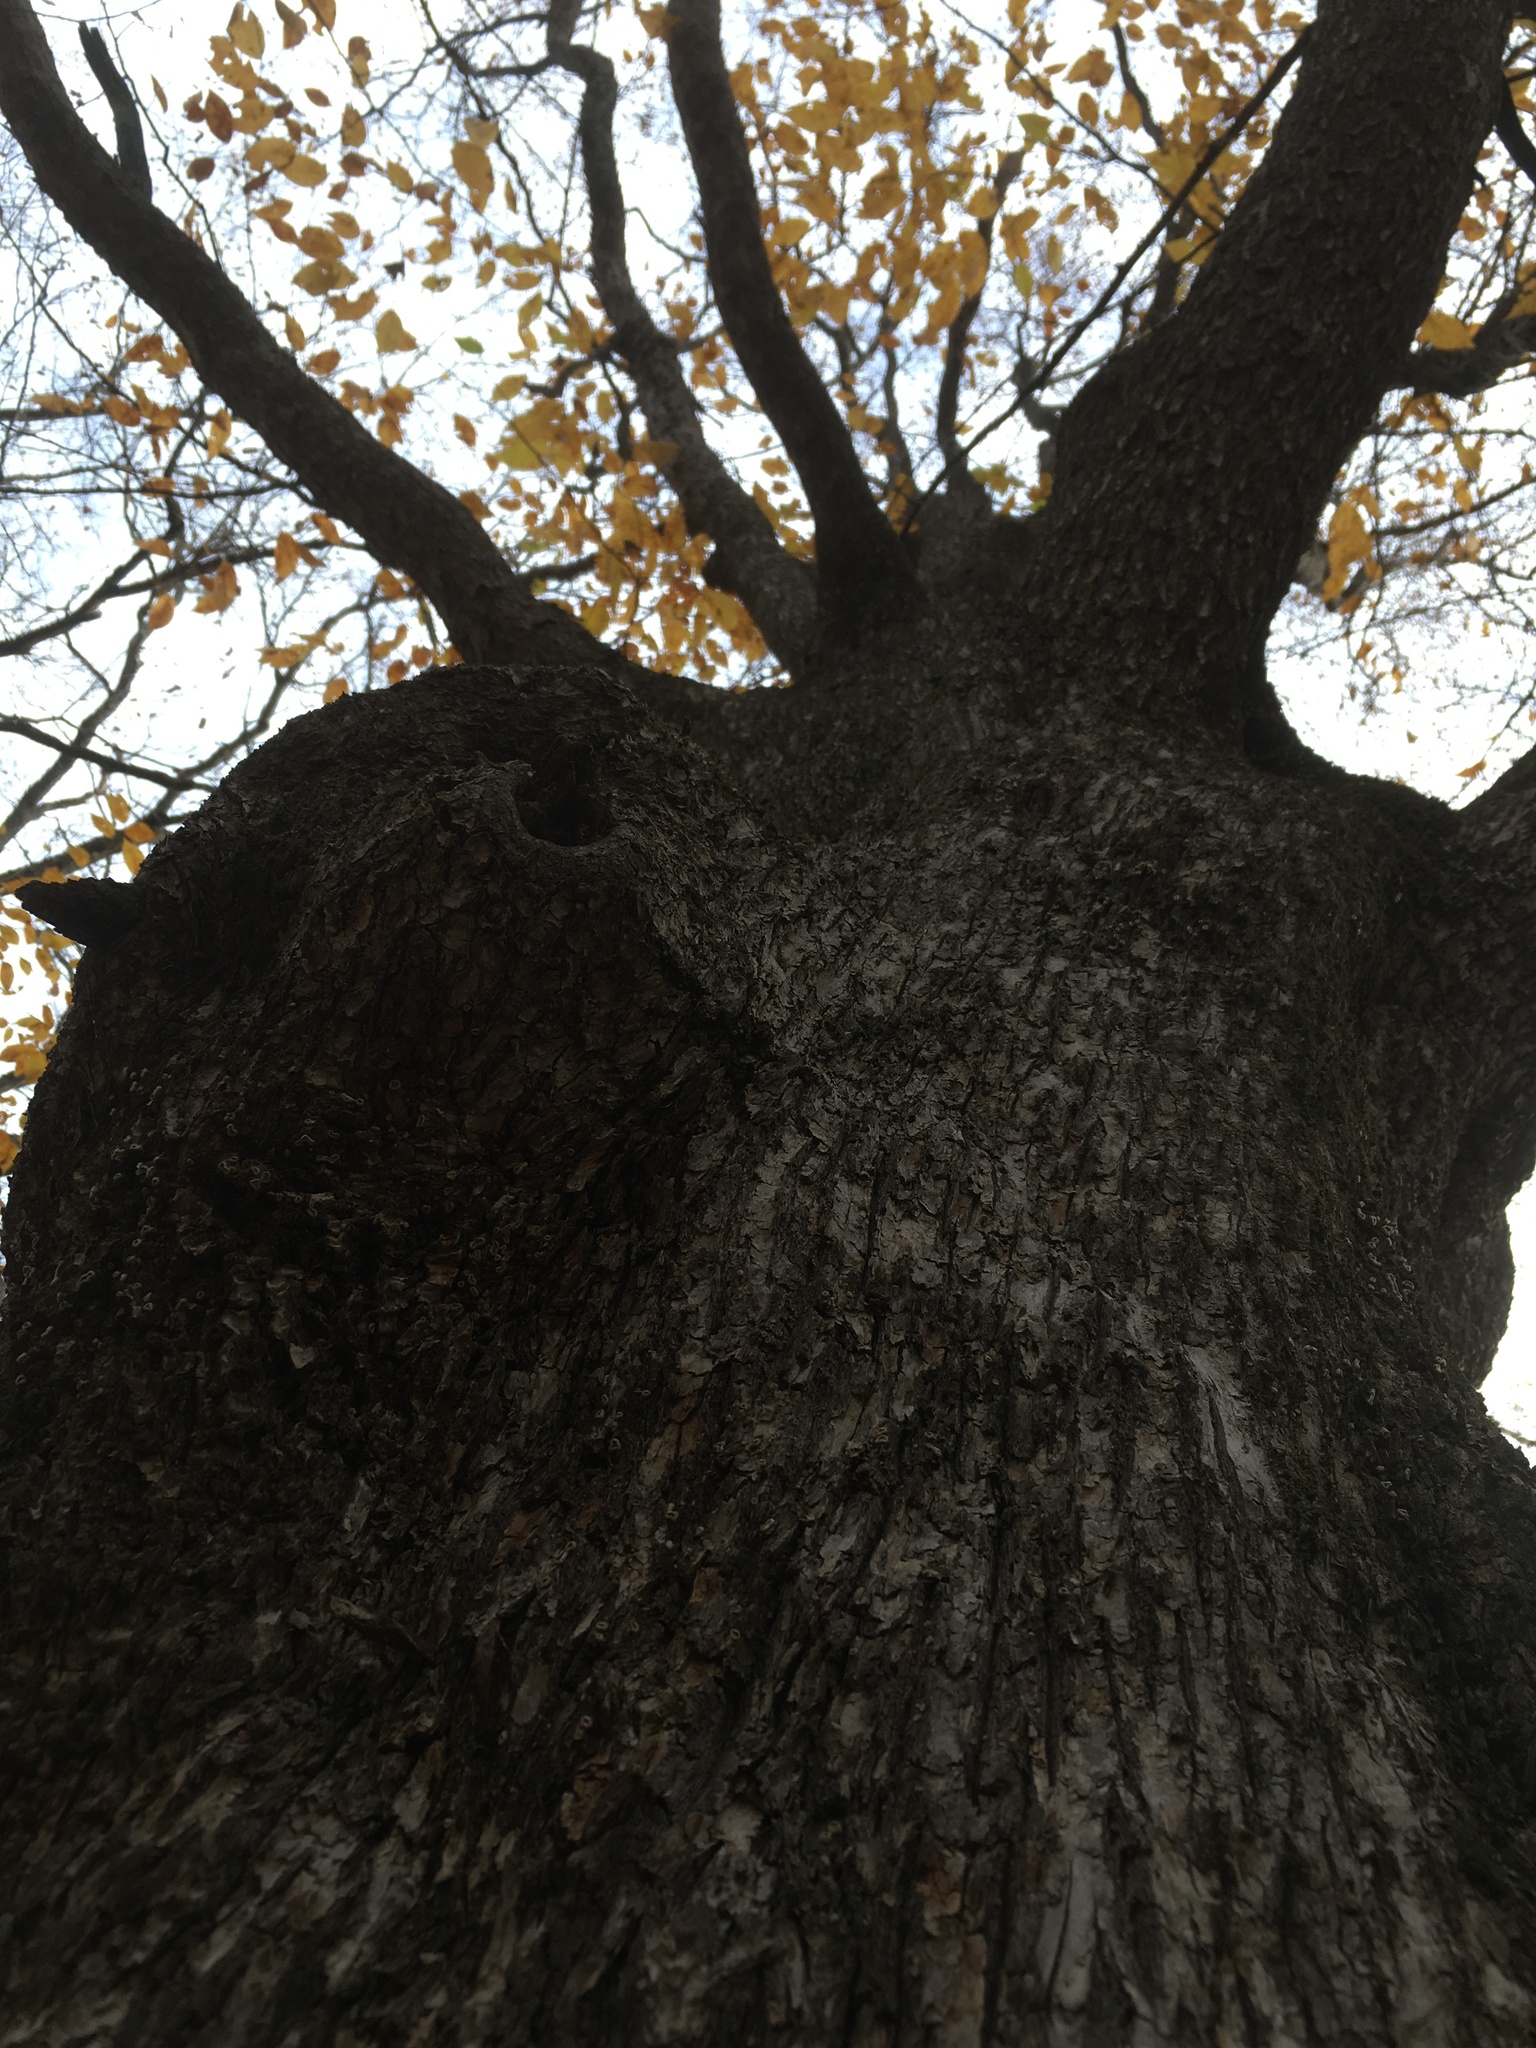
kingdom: Plantae
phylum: Tracheophyta
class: Magnoliopsida
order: Fagales
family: Betulaceae
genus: Ostrya
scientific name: Ostrya virginiana
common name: Ironwood
